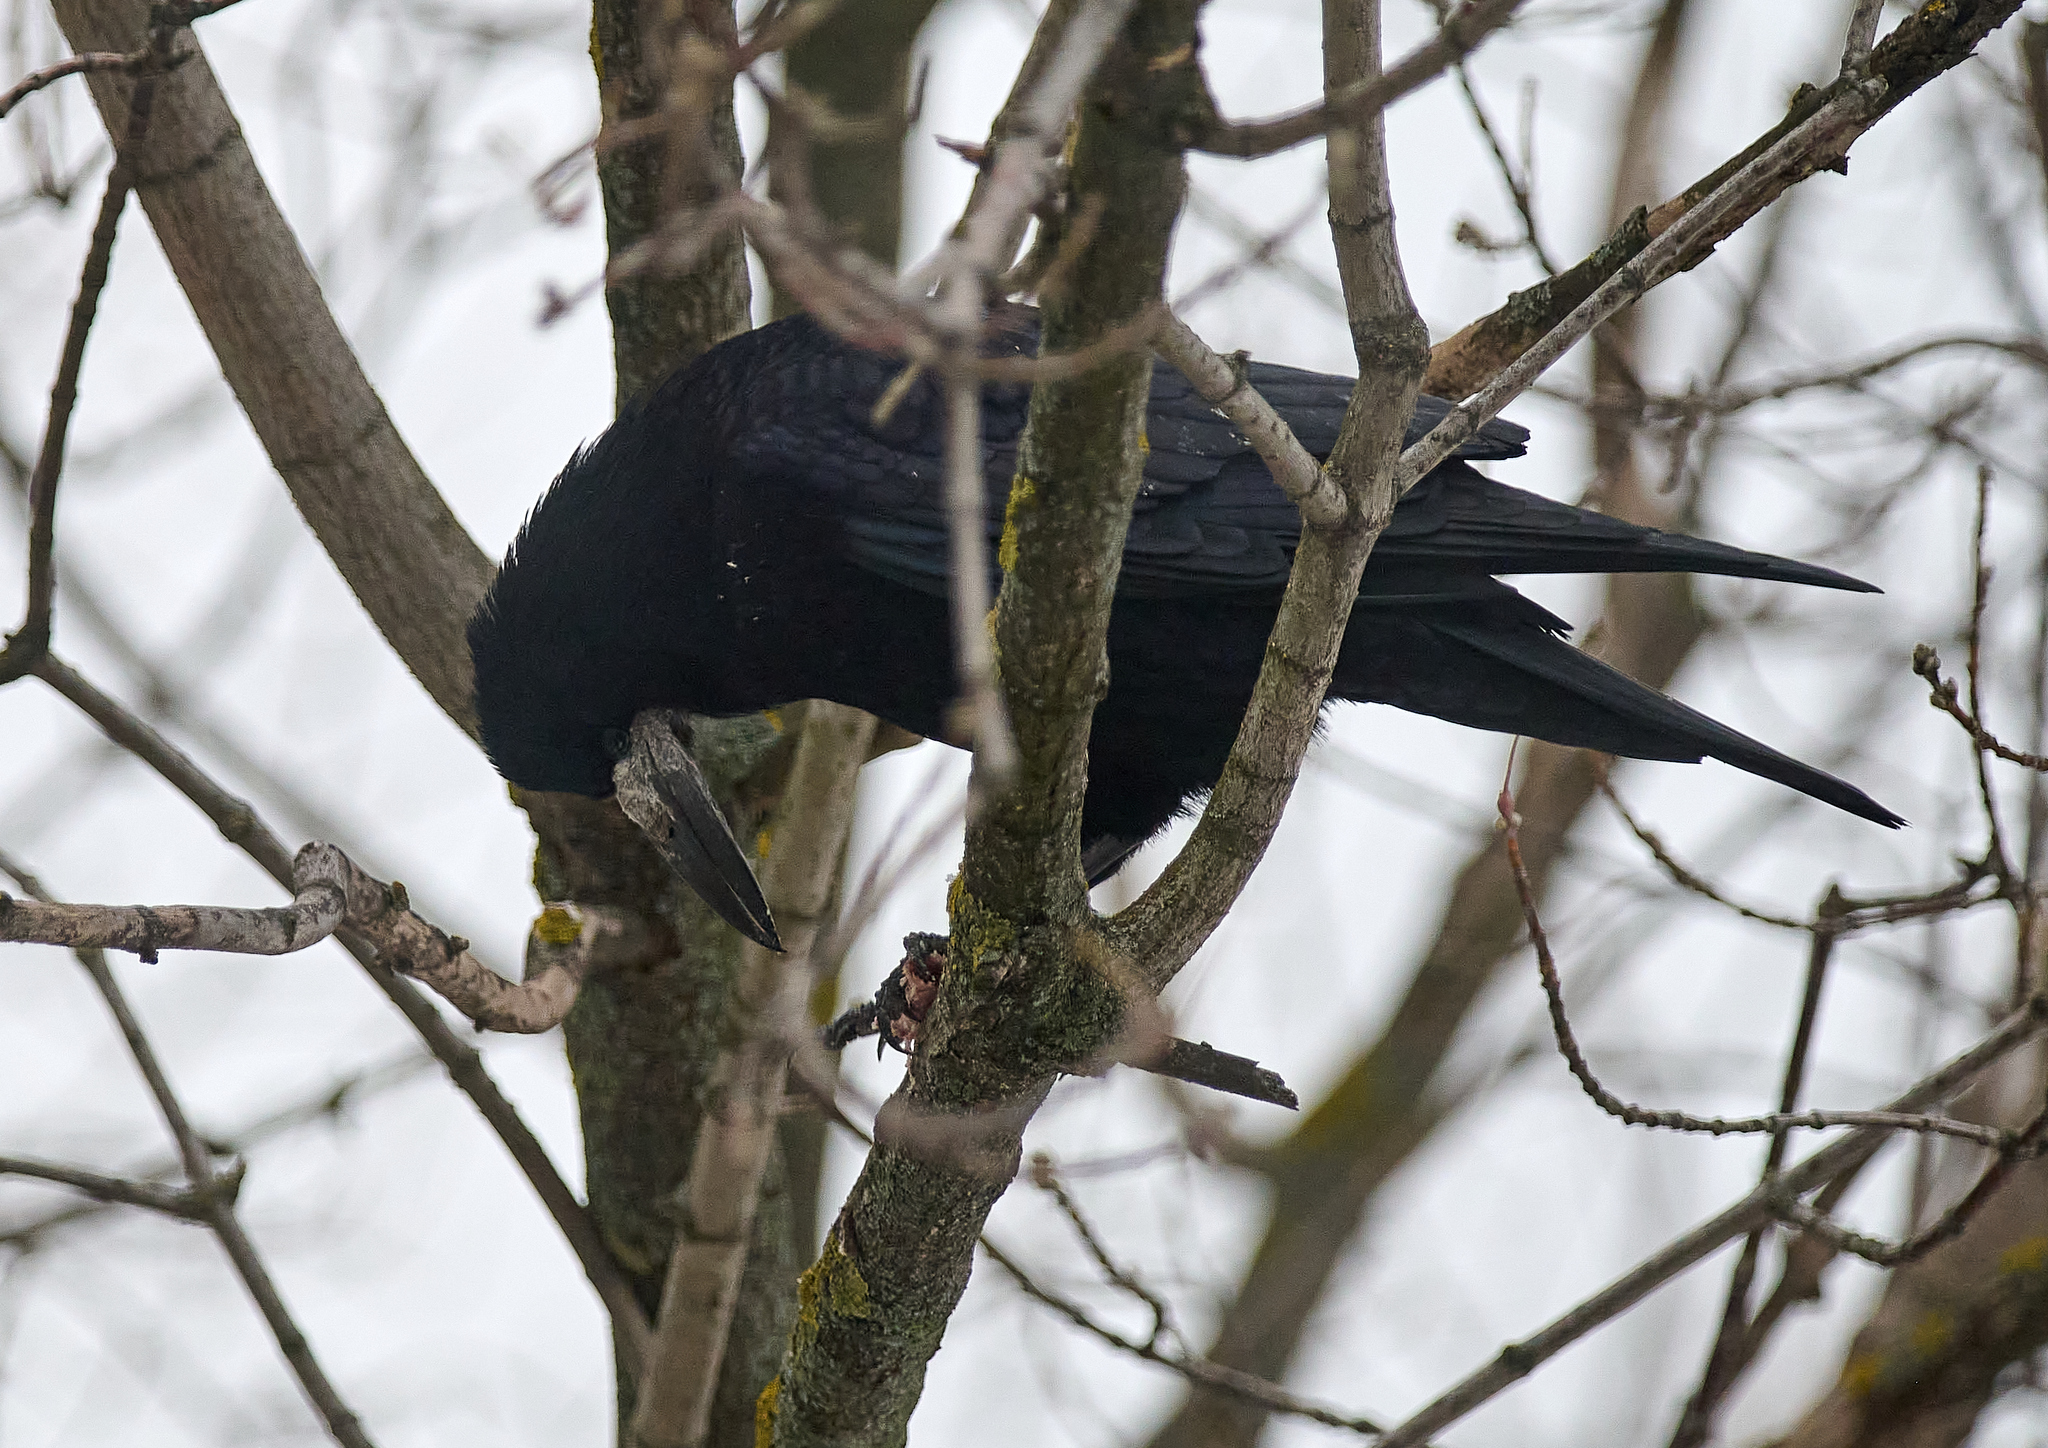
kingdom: Animalia
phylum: Chordata
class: Aves
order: Passeriformes
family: Corvidae
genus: Corvus
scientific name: Corvus frugilegus
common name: Rook
